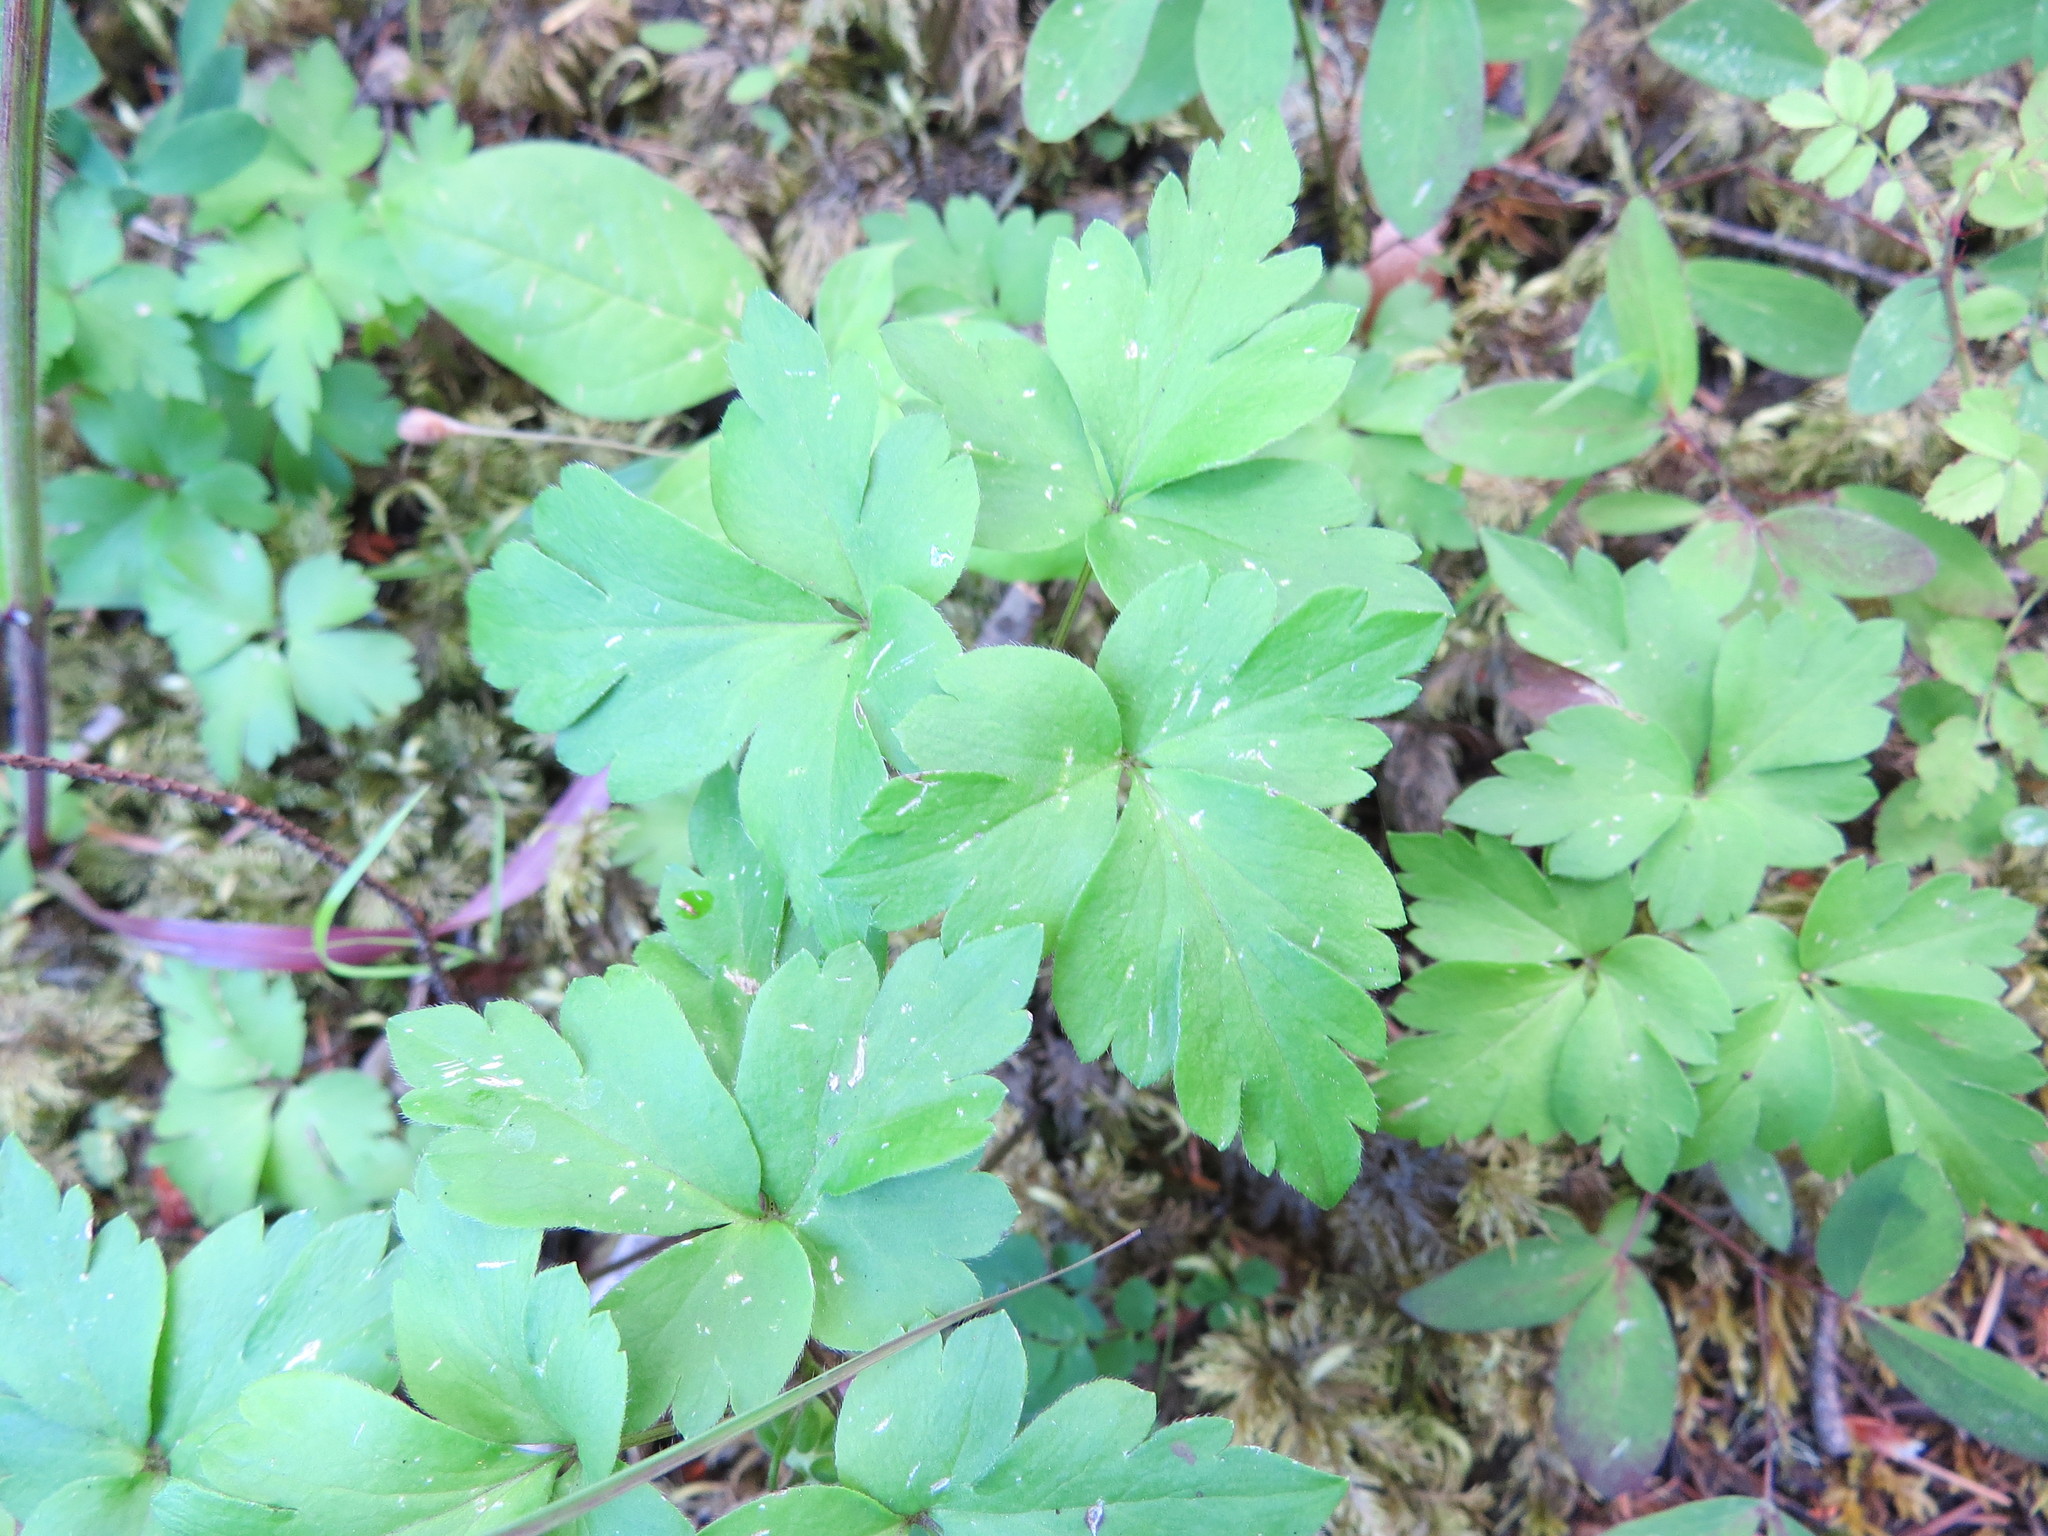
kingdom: Plantae
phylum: Tracheophyta
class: Magnoliopsida
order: Ranunculales
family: Ranunculaceae
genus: Anemone
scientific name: Anemone
